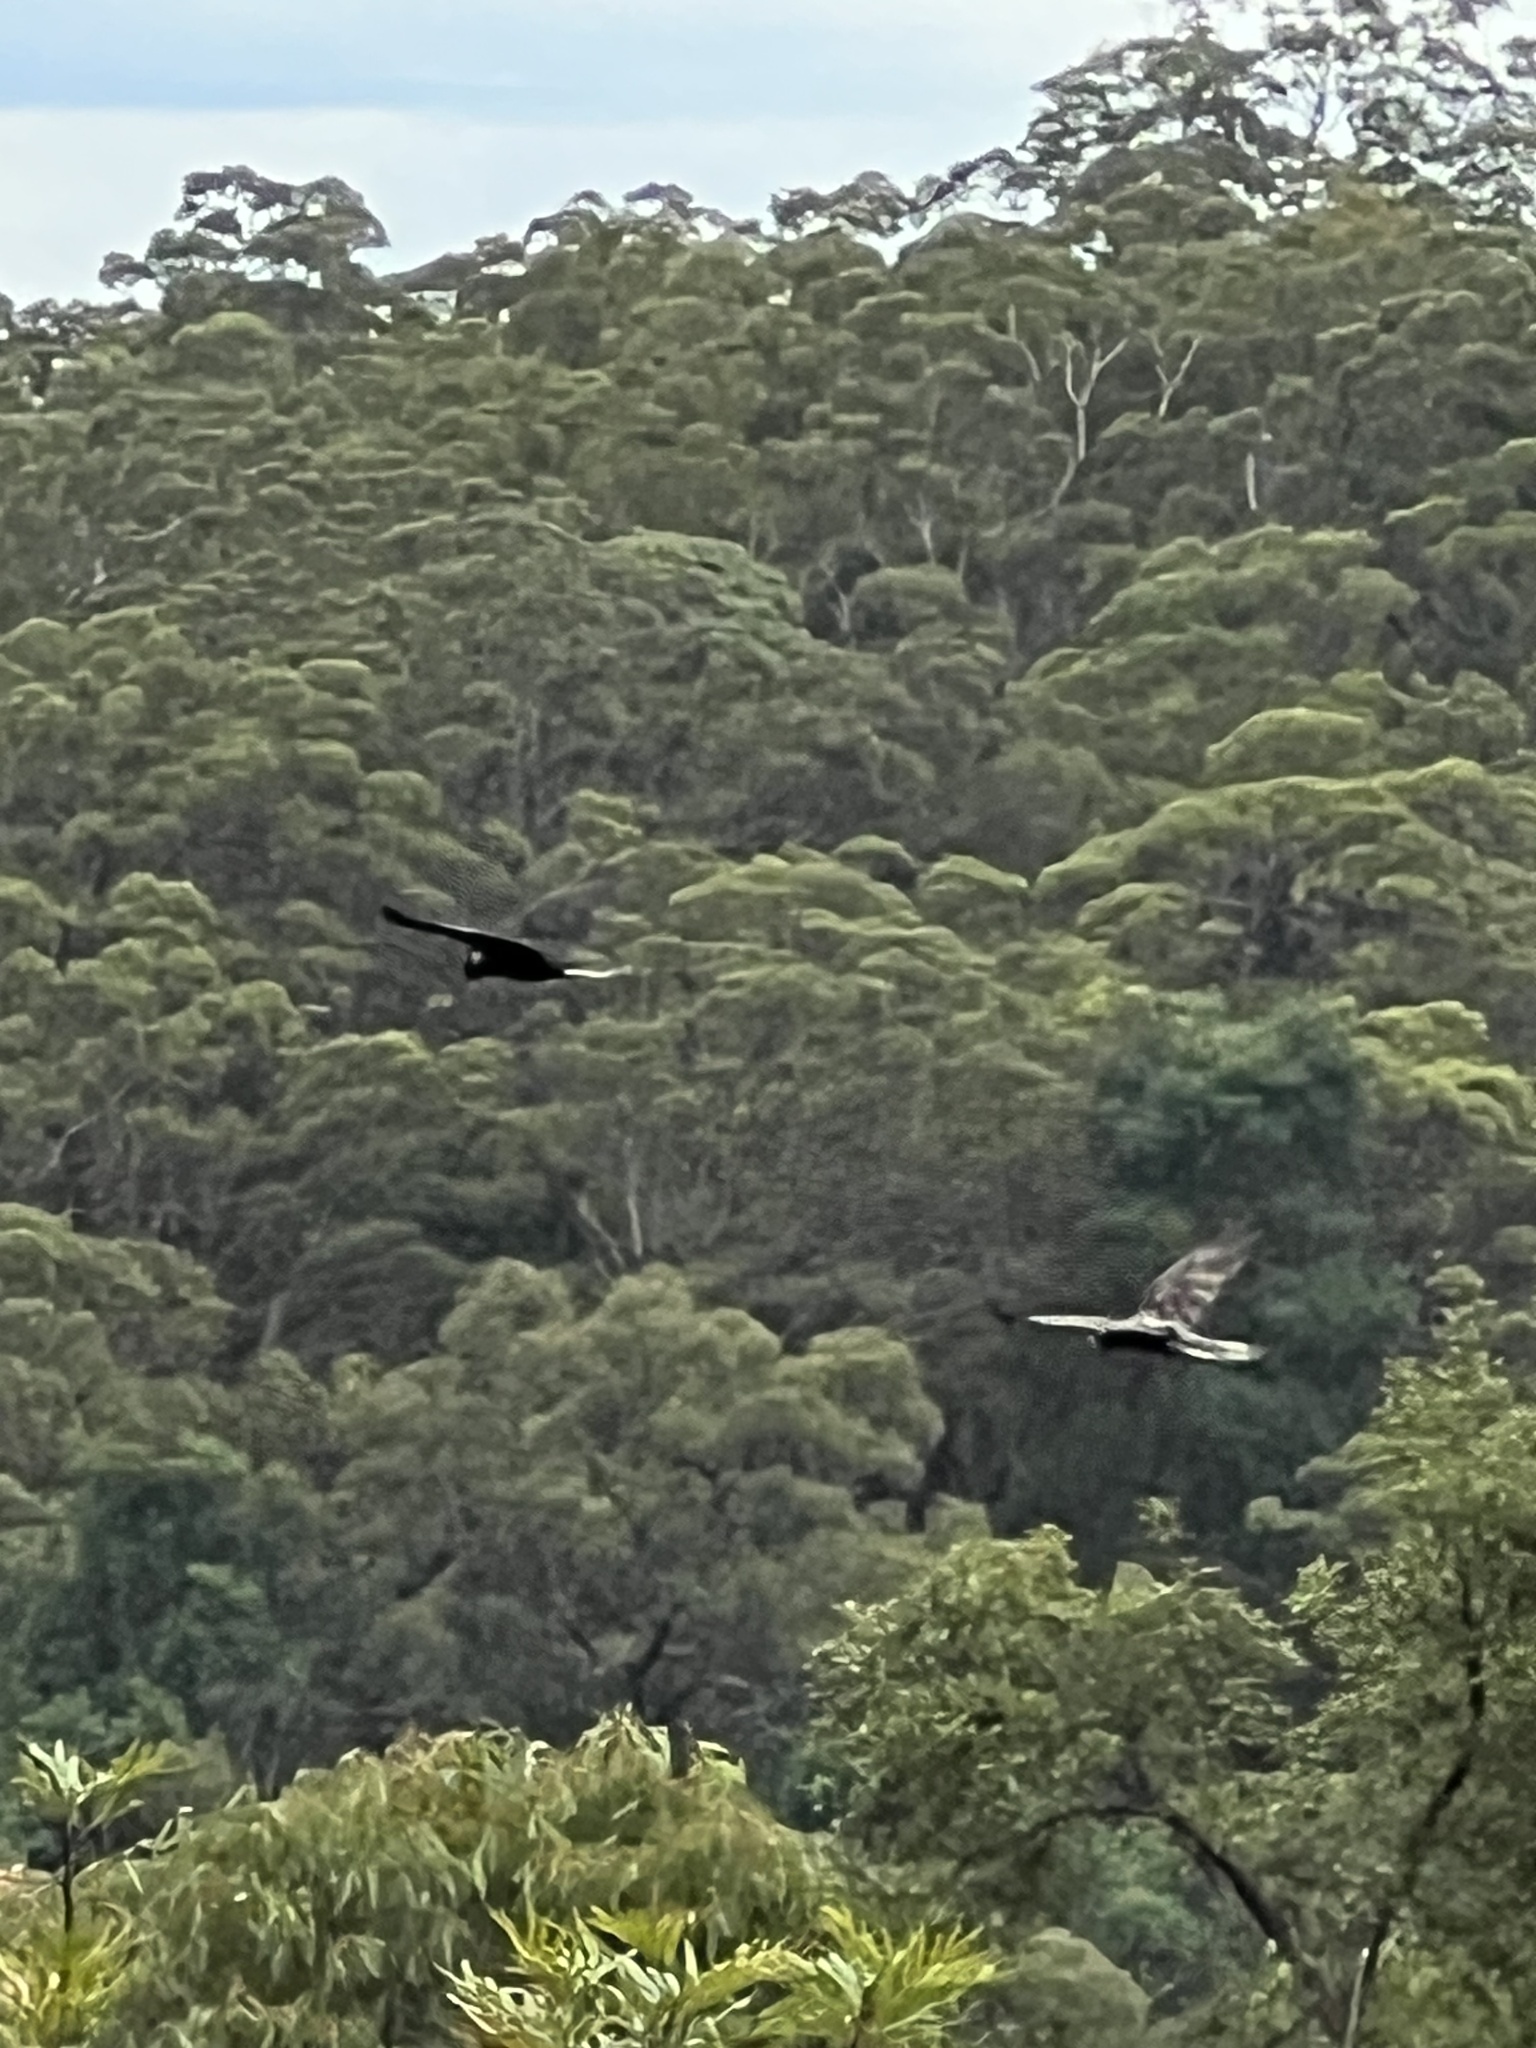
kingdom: Animalia
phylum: Chordata
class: Aves
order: Psittaciformes
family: Cacatuidae
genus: Zanda
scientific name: Zanda funerea
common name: Yellow-tailed black-cockatoo
